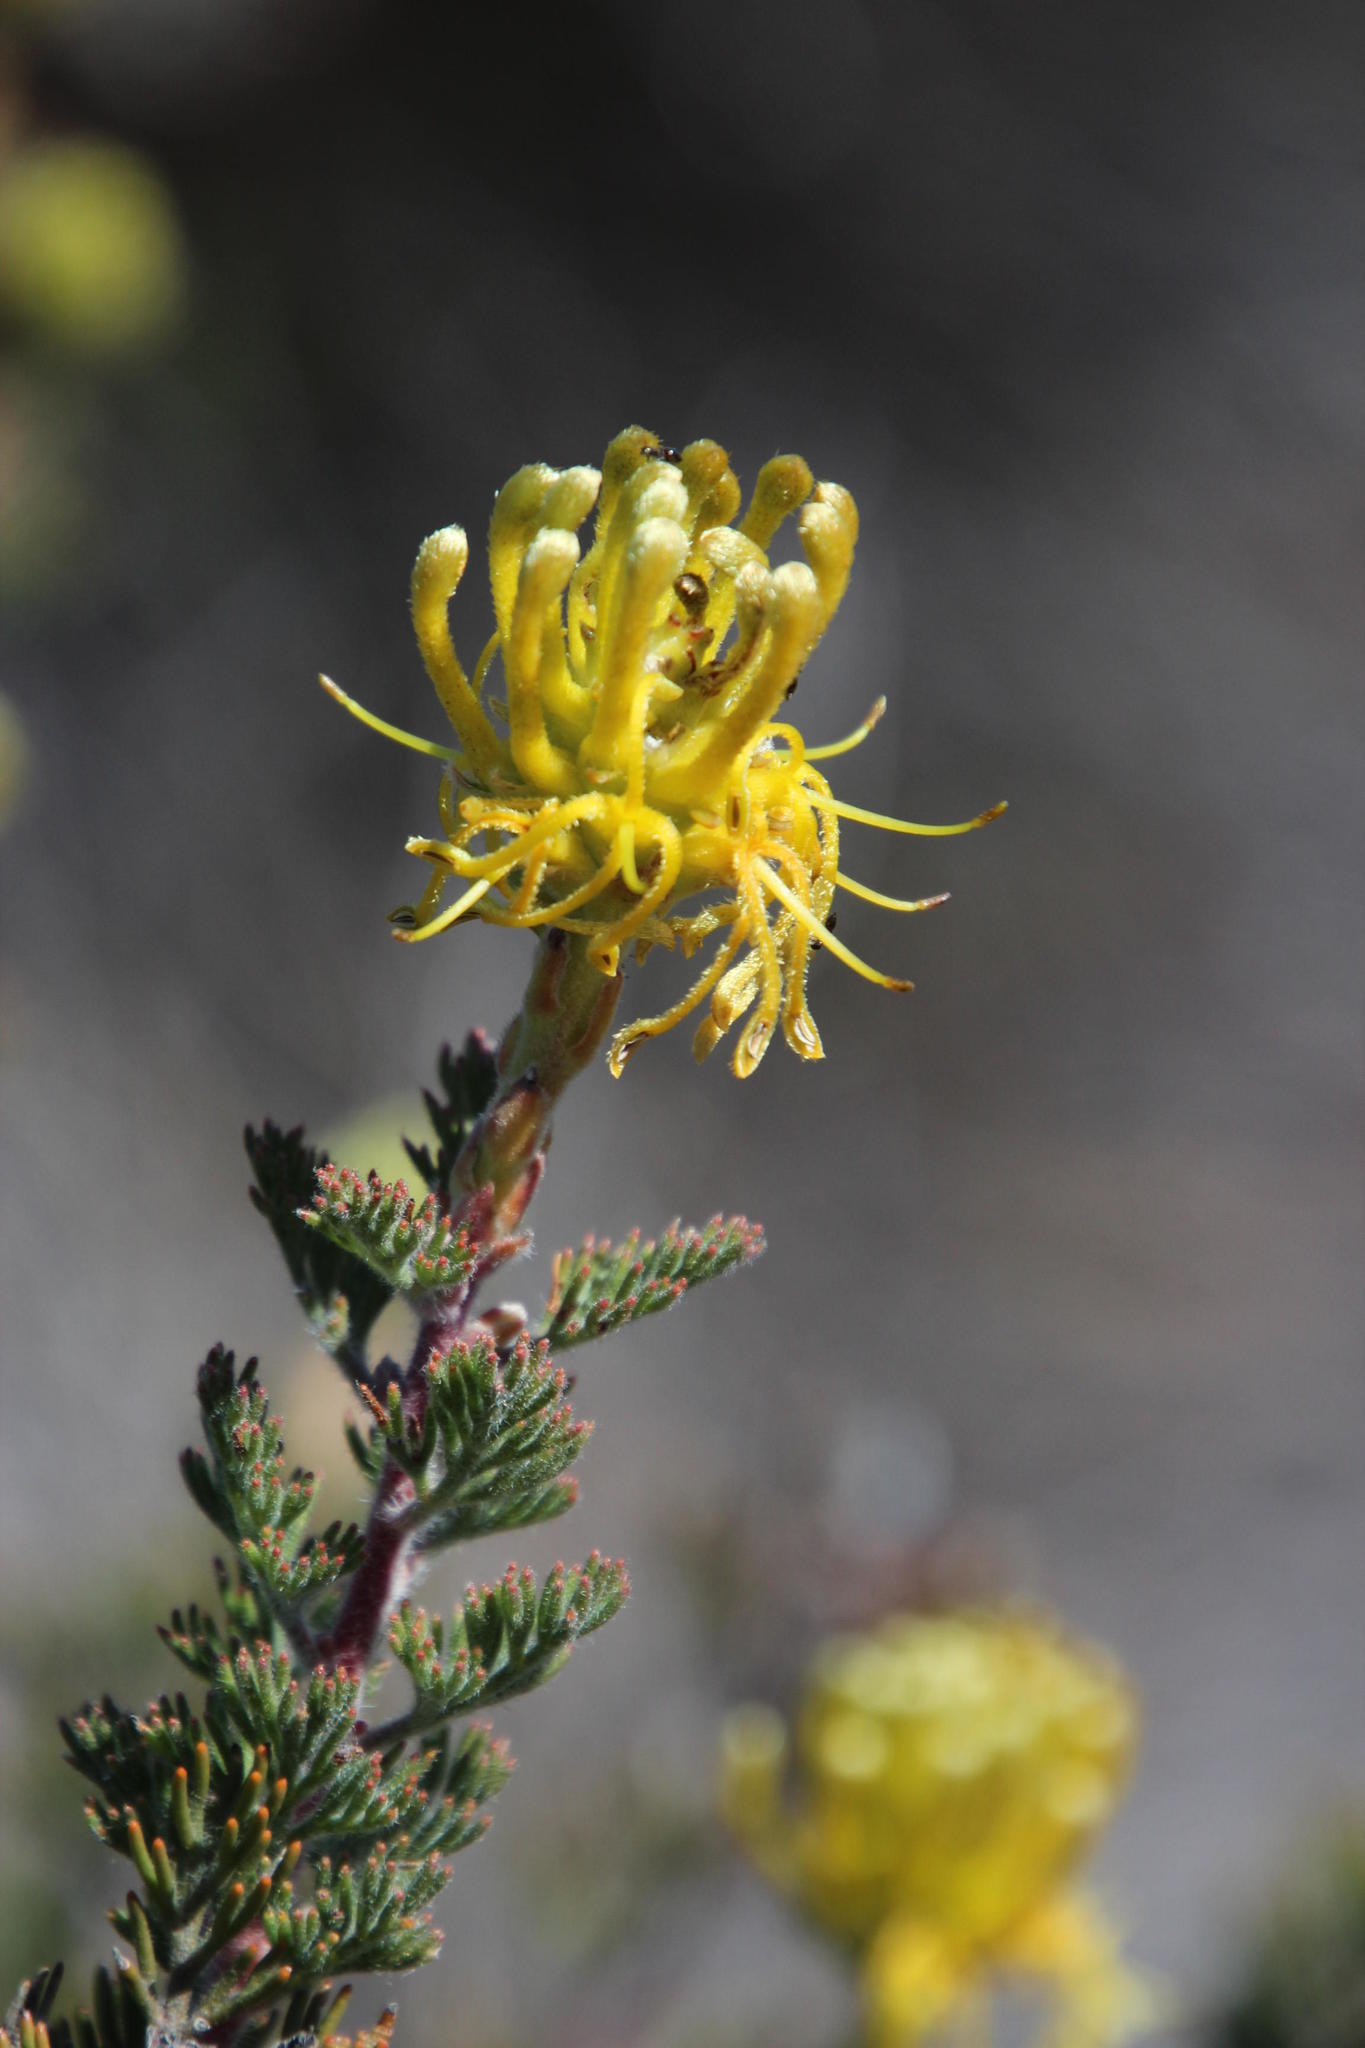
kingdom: Plantae
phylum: Tracheophyta
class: Magnoliopsida
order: Proteales
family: Proteaceae
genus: Serruria
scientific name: Serruria flava
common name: Spiderhead
